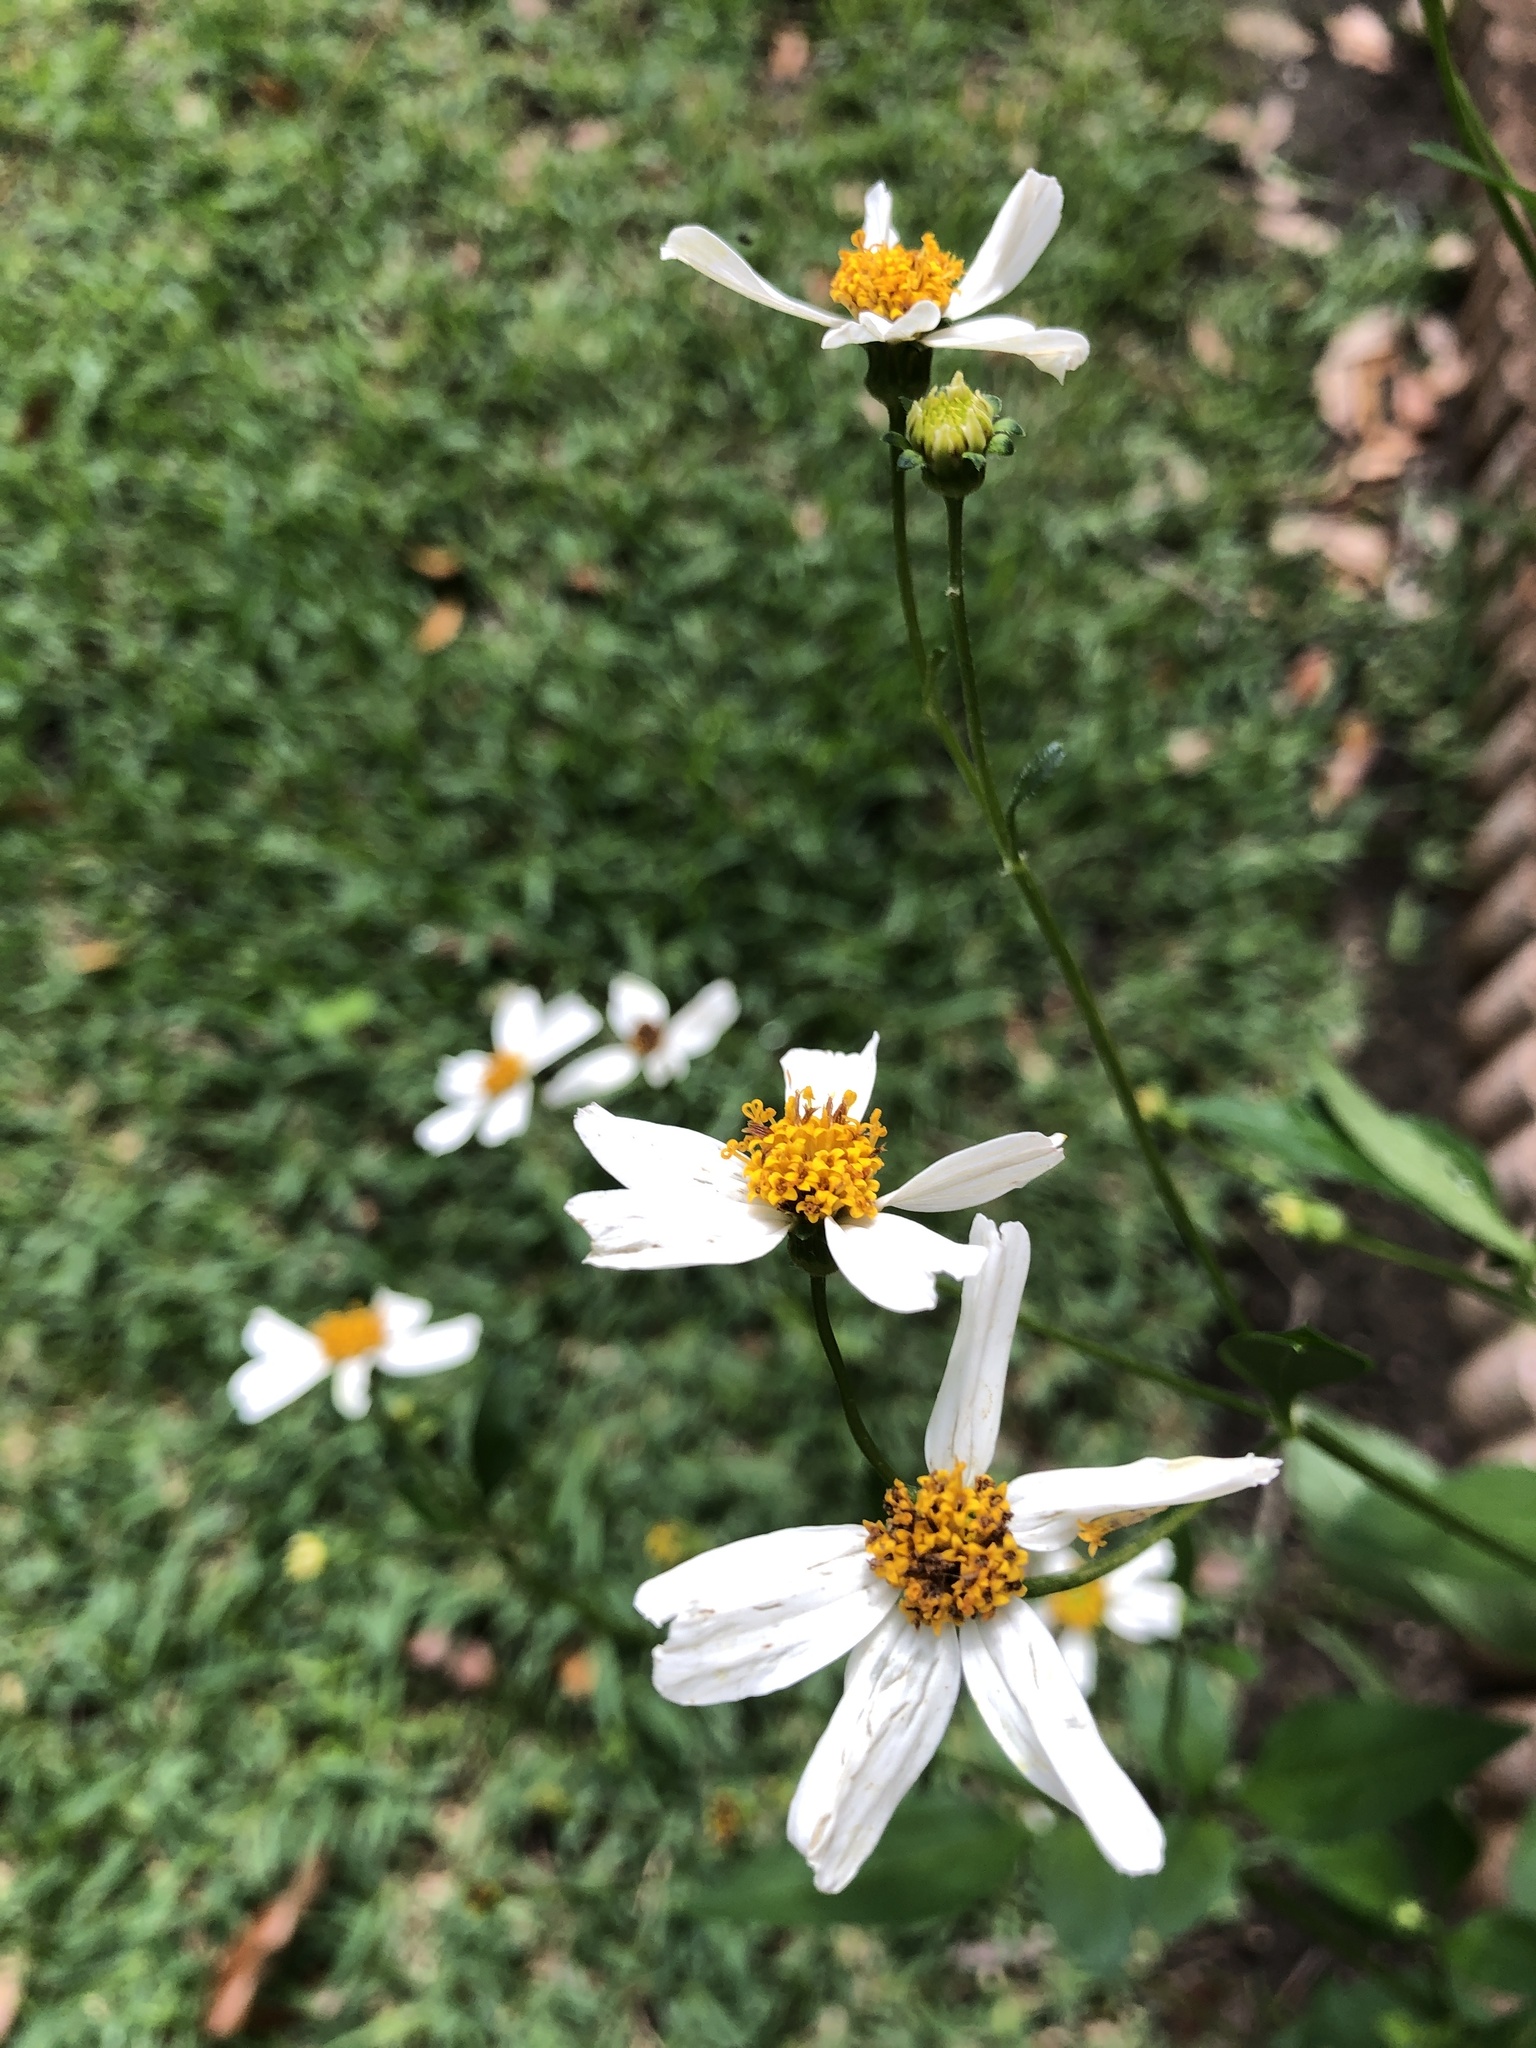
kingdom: Plantae
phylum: Tracheophyta
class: Magnoliopsida
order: Asterales
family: Asteraceae
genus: Bidens
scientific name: Bidens alba
